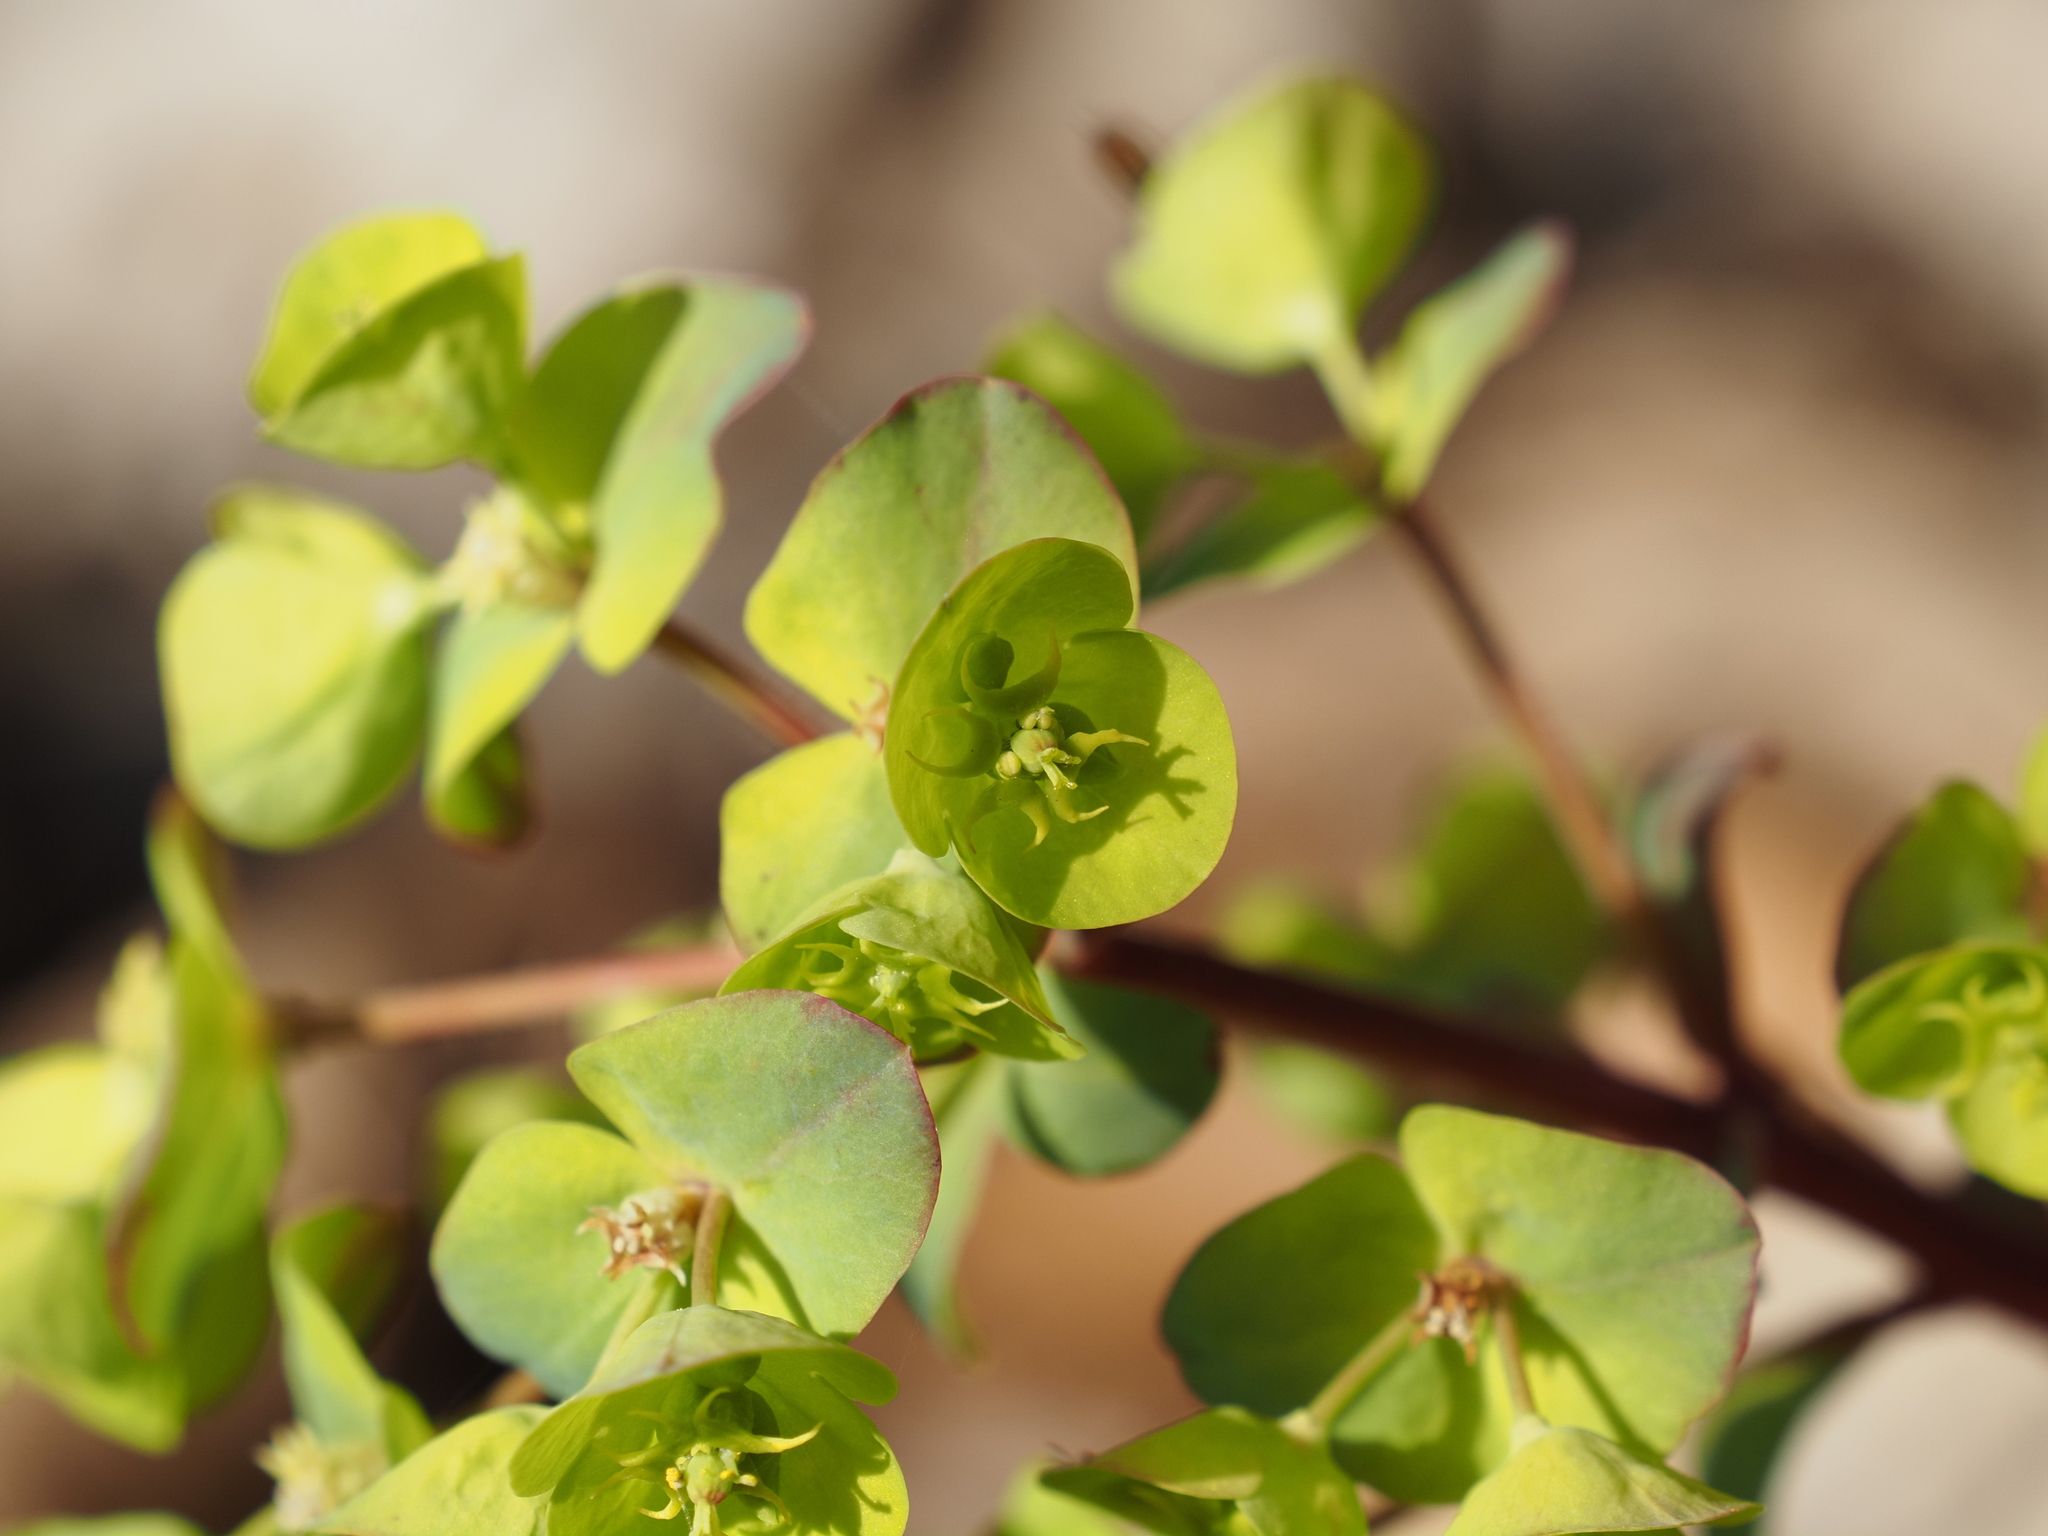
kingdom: Plantae
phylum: Tracheophyta
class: Magnoliopsida
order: Malpighiales
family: Euphorbiaceae
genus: Euphorbia
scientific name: Euphorbia amygdaloides
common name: Wood spurge
